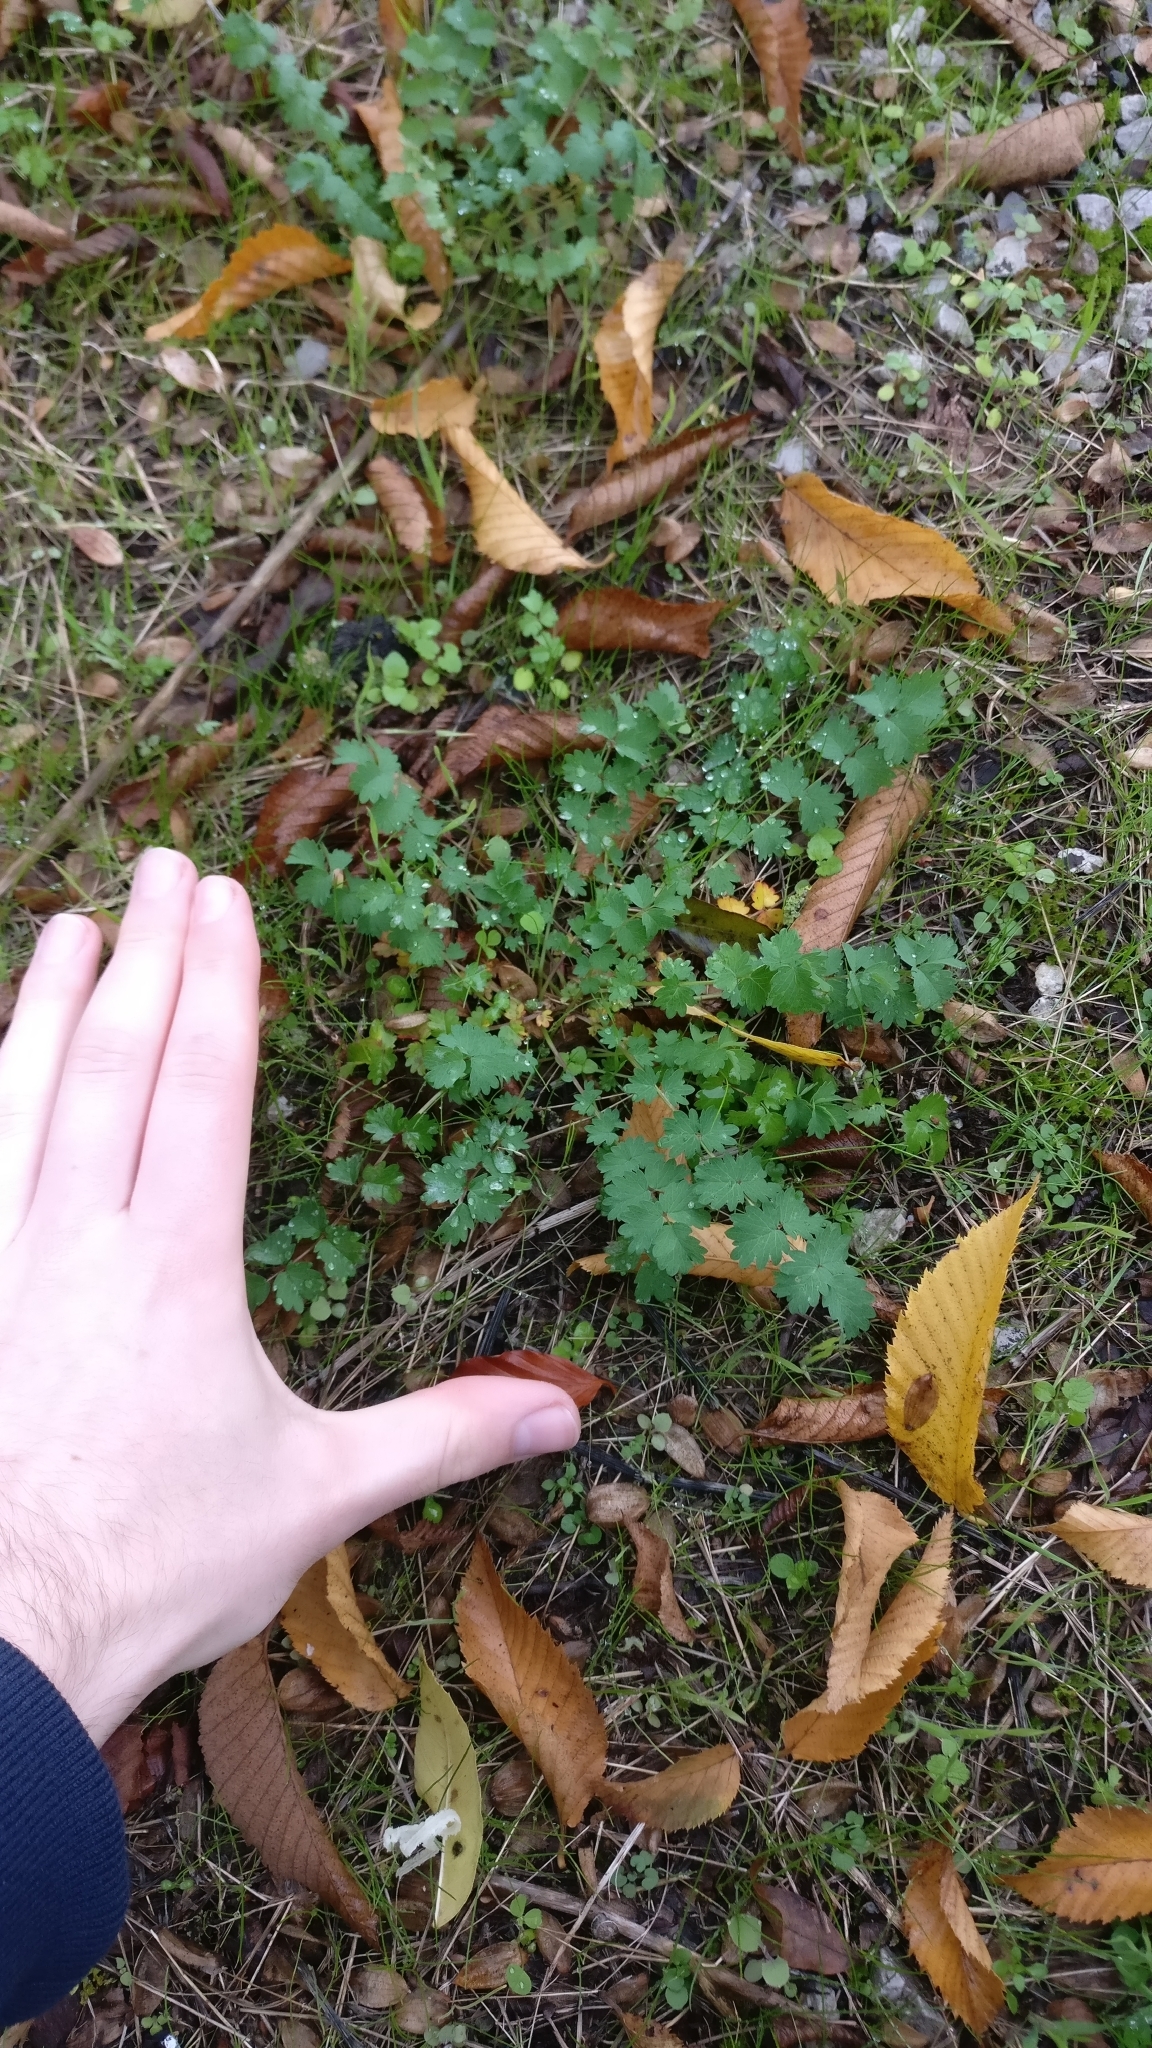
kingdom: Plantae
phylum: Tracheophyta
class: Magnoliopsida
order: Rosales
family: Rosaceae
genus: Poterium
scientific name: Poterium sanguisorba
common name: Salad burnet
